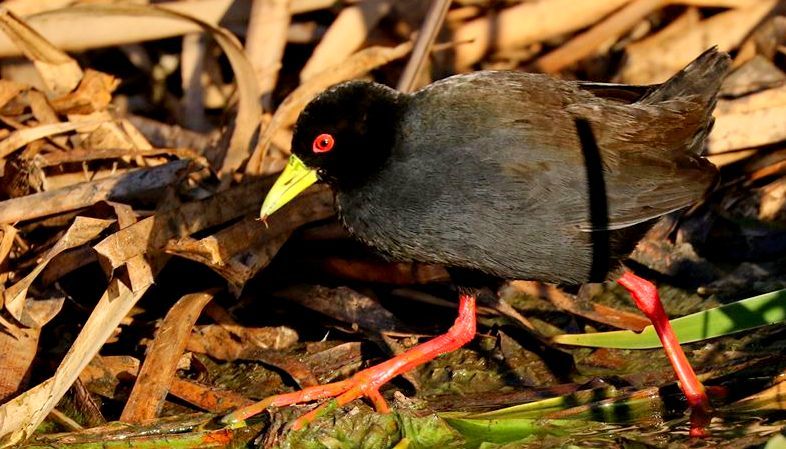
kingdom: Animalia
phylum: Chordata
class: Aves
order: Gruiformes
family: Rallidae
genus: Amaurornis
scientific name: Amaurornis flavirostra
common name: Black crake
